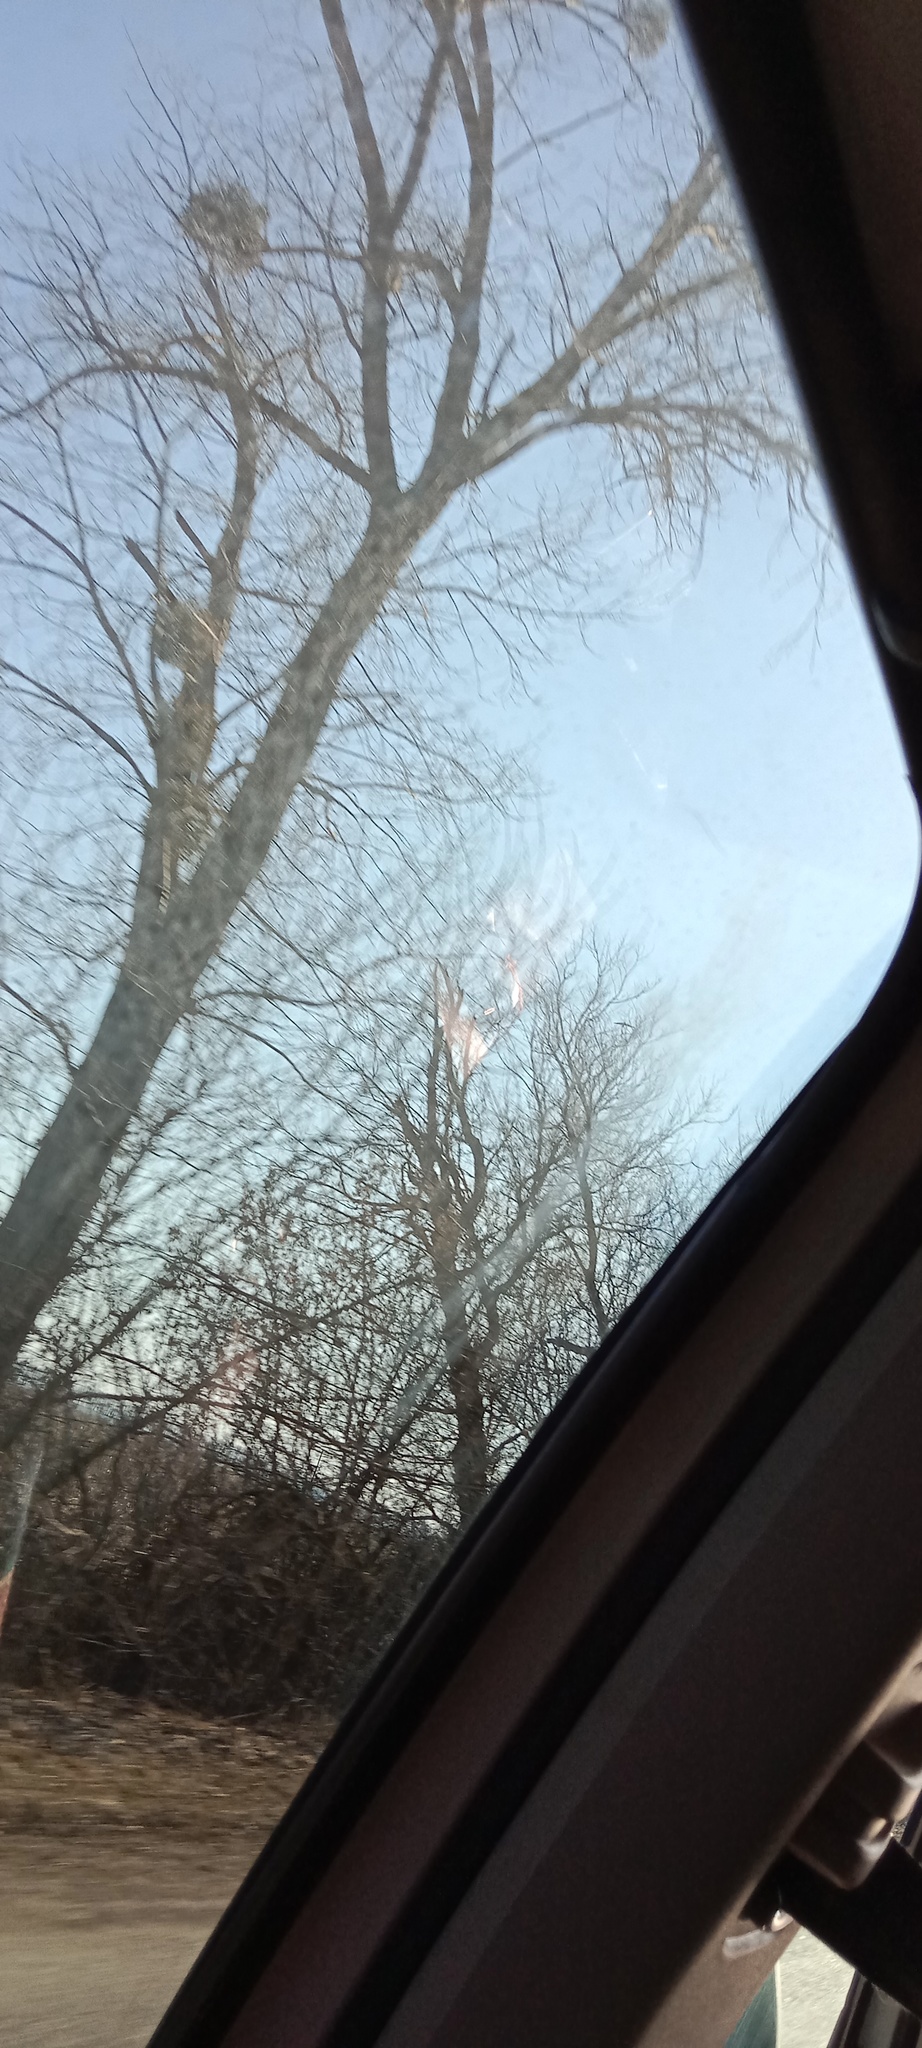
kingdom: Plantae
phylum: Tracheophyta
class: Magnoliopsida
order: Santalales
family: Viscaceae
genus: Viscum
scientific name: Viscum album
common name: Mistletoe
